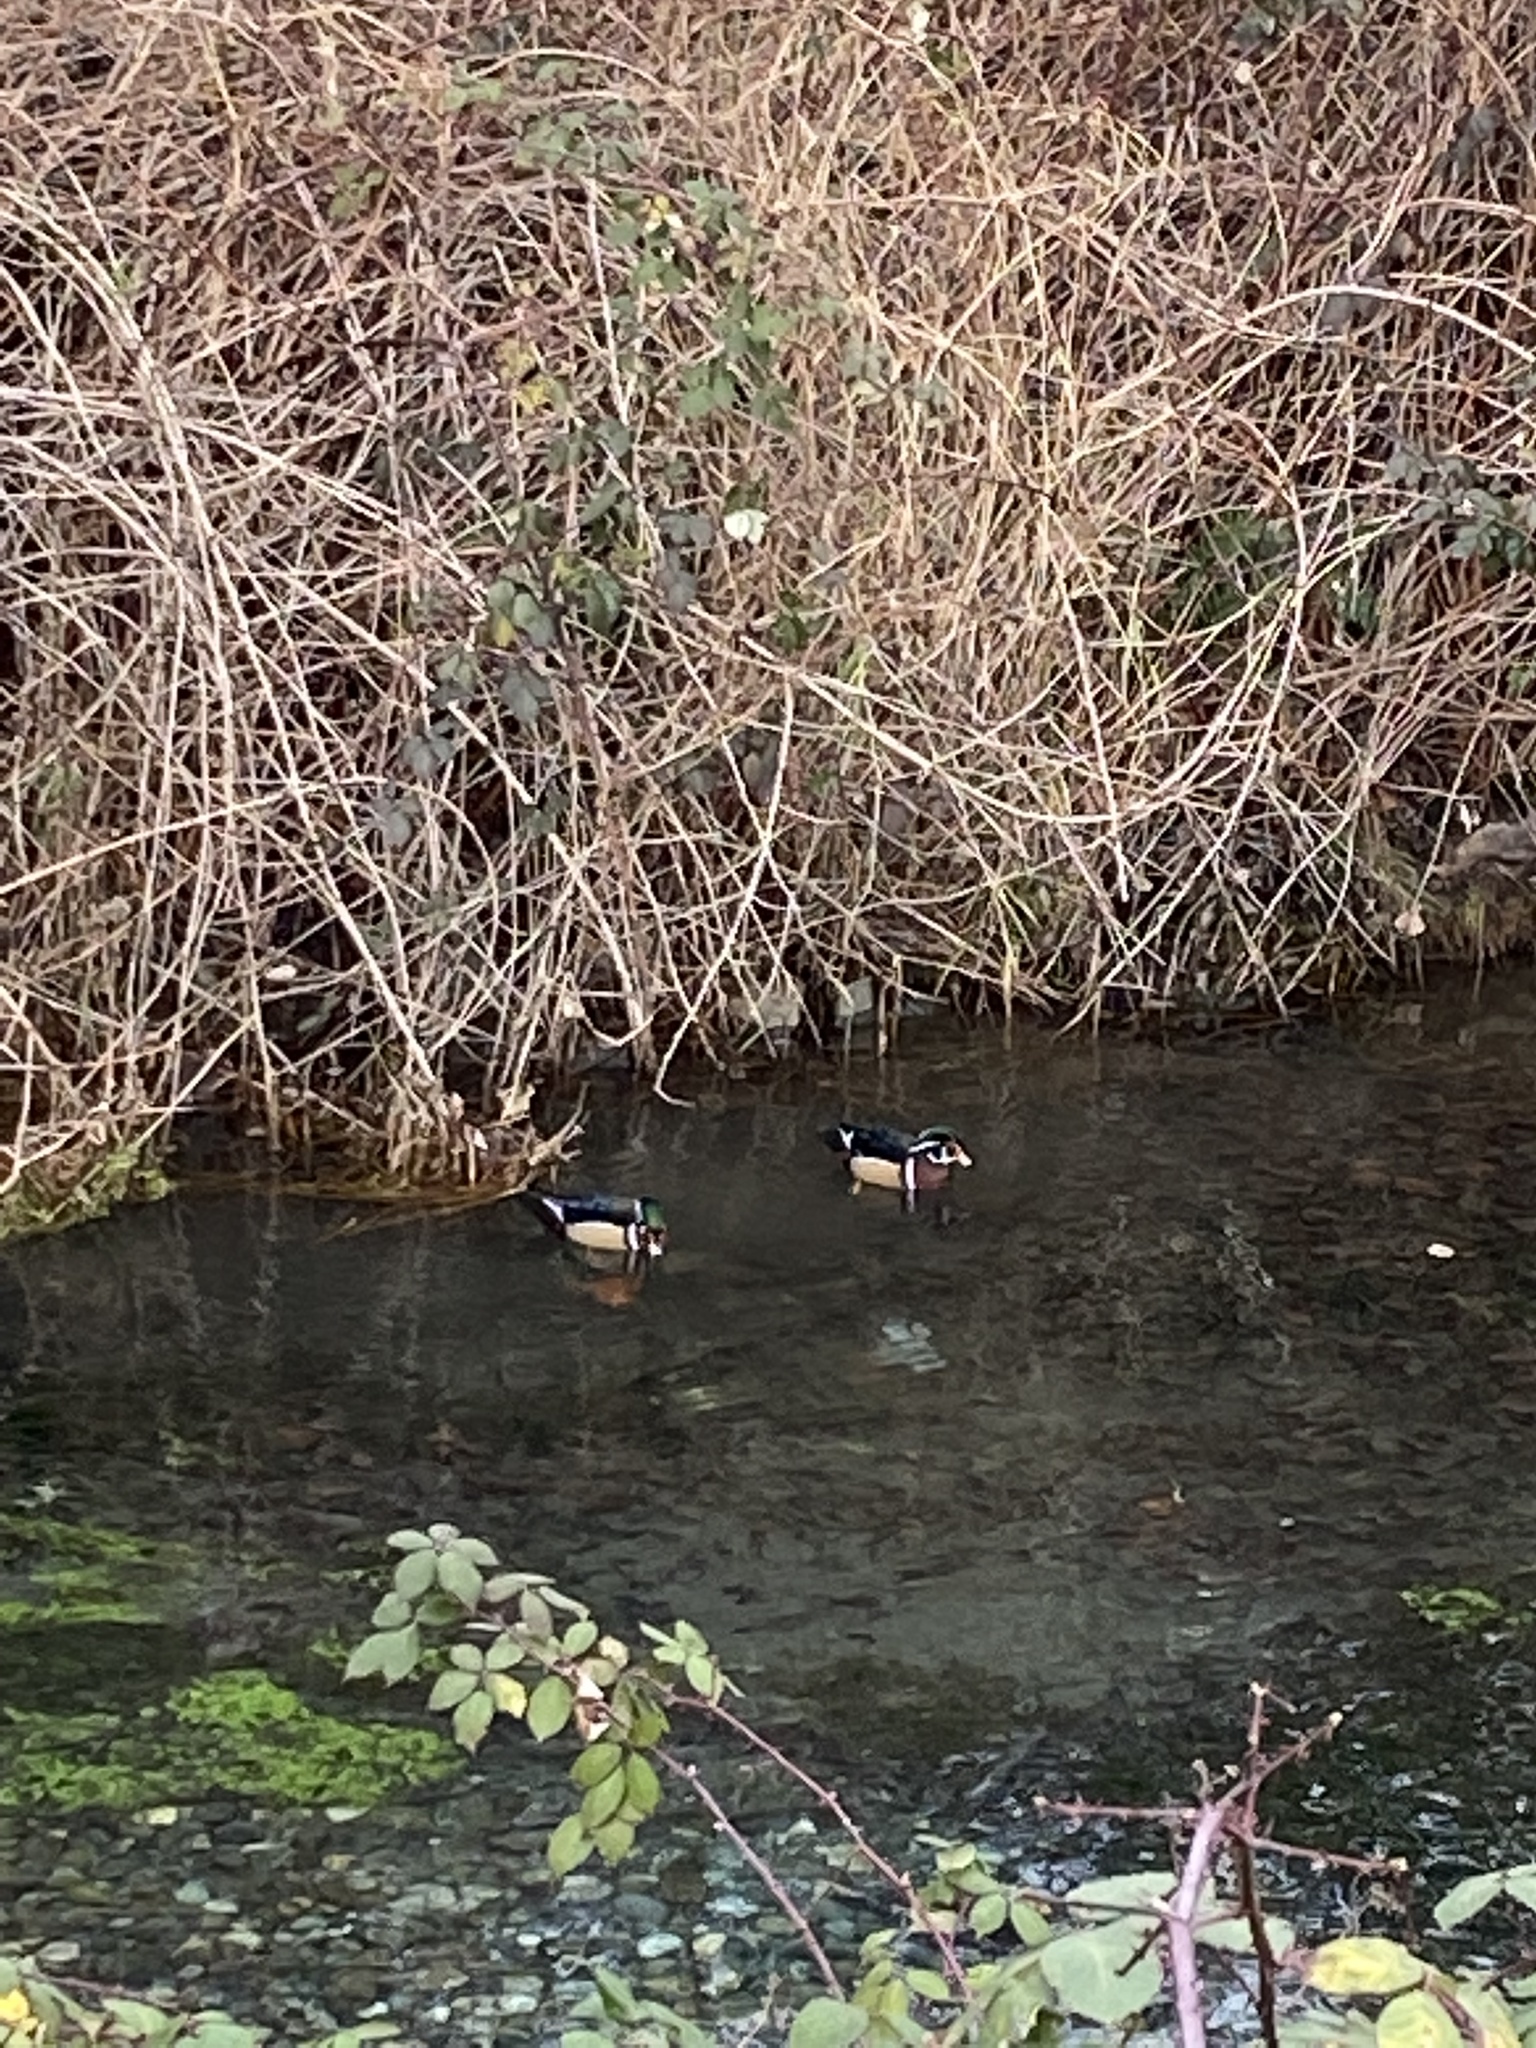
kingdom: Animalia
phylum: Chordata
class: Aves
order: Anseriformes
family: Anatidae
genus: Aix
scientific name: Aix sponsa
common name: Wood duck
